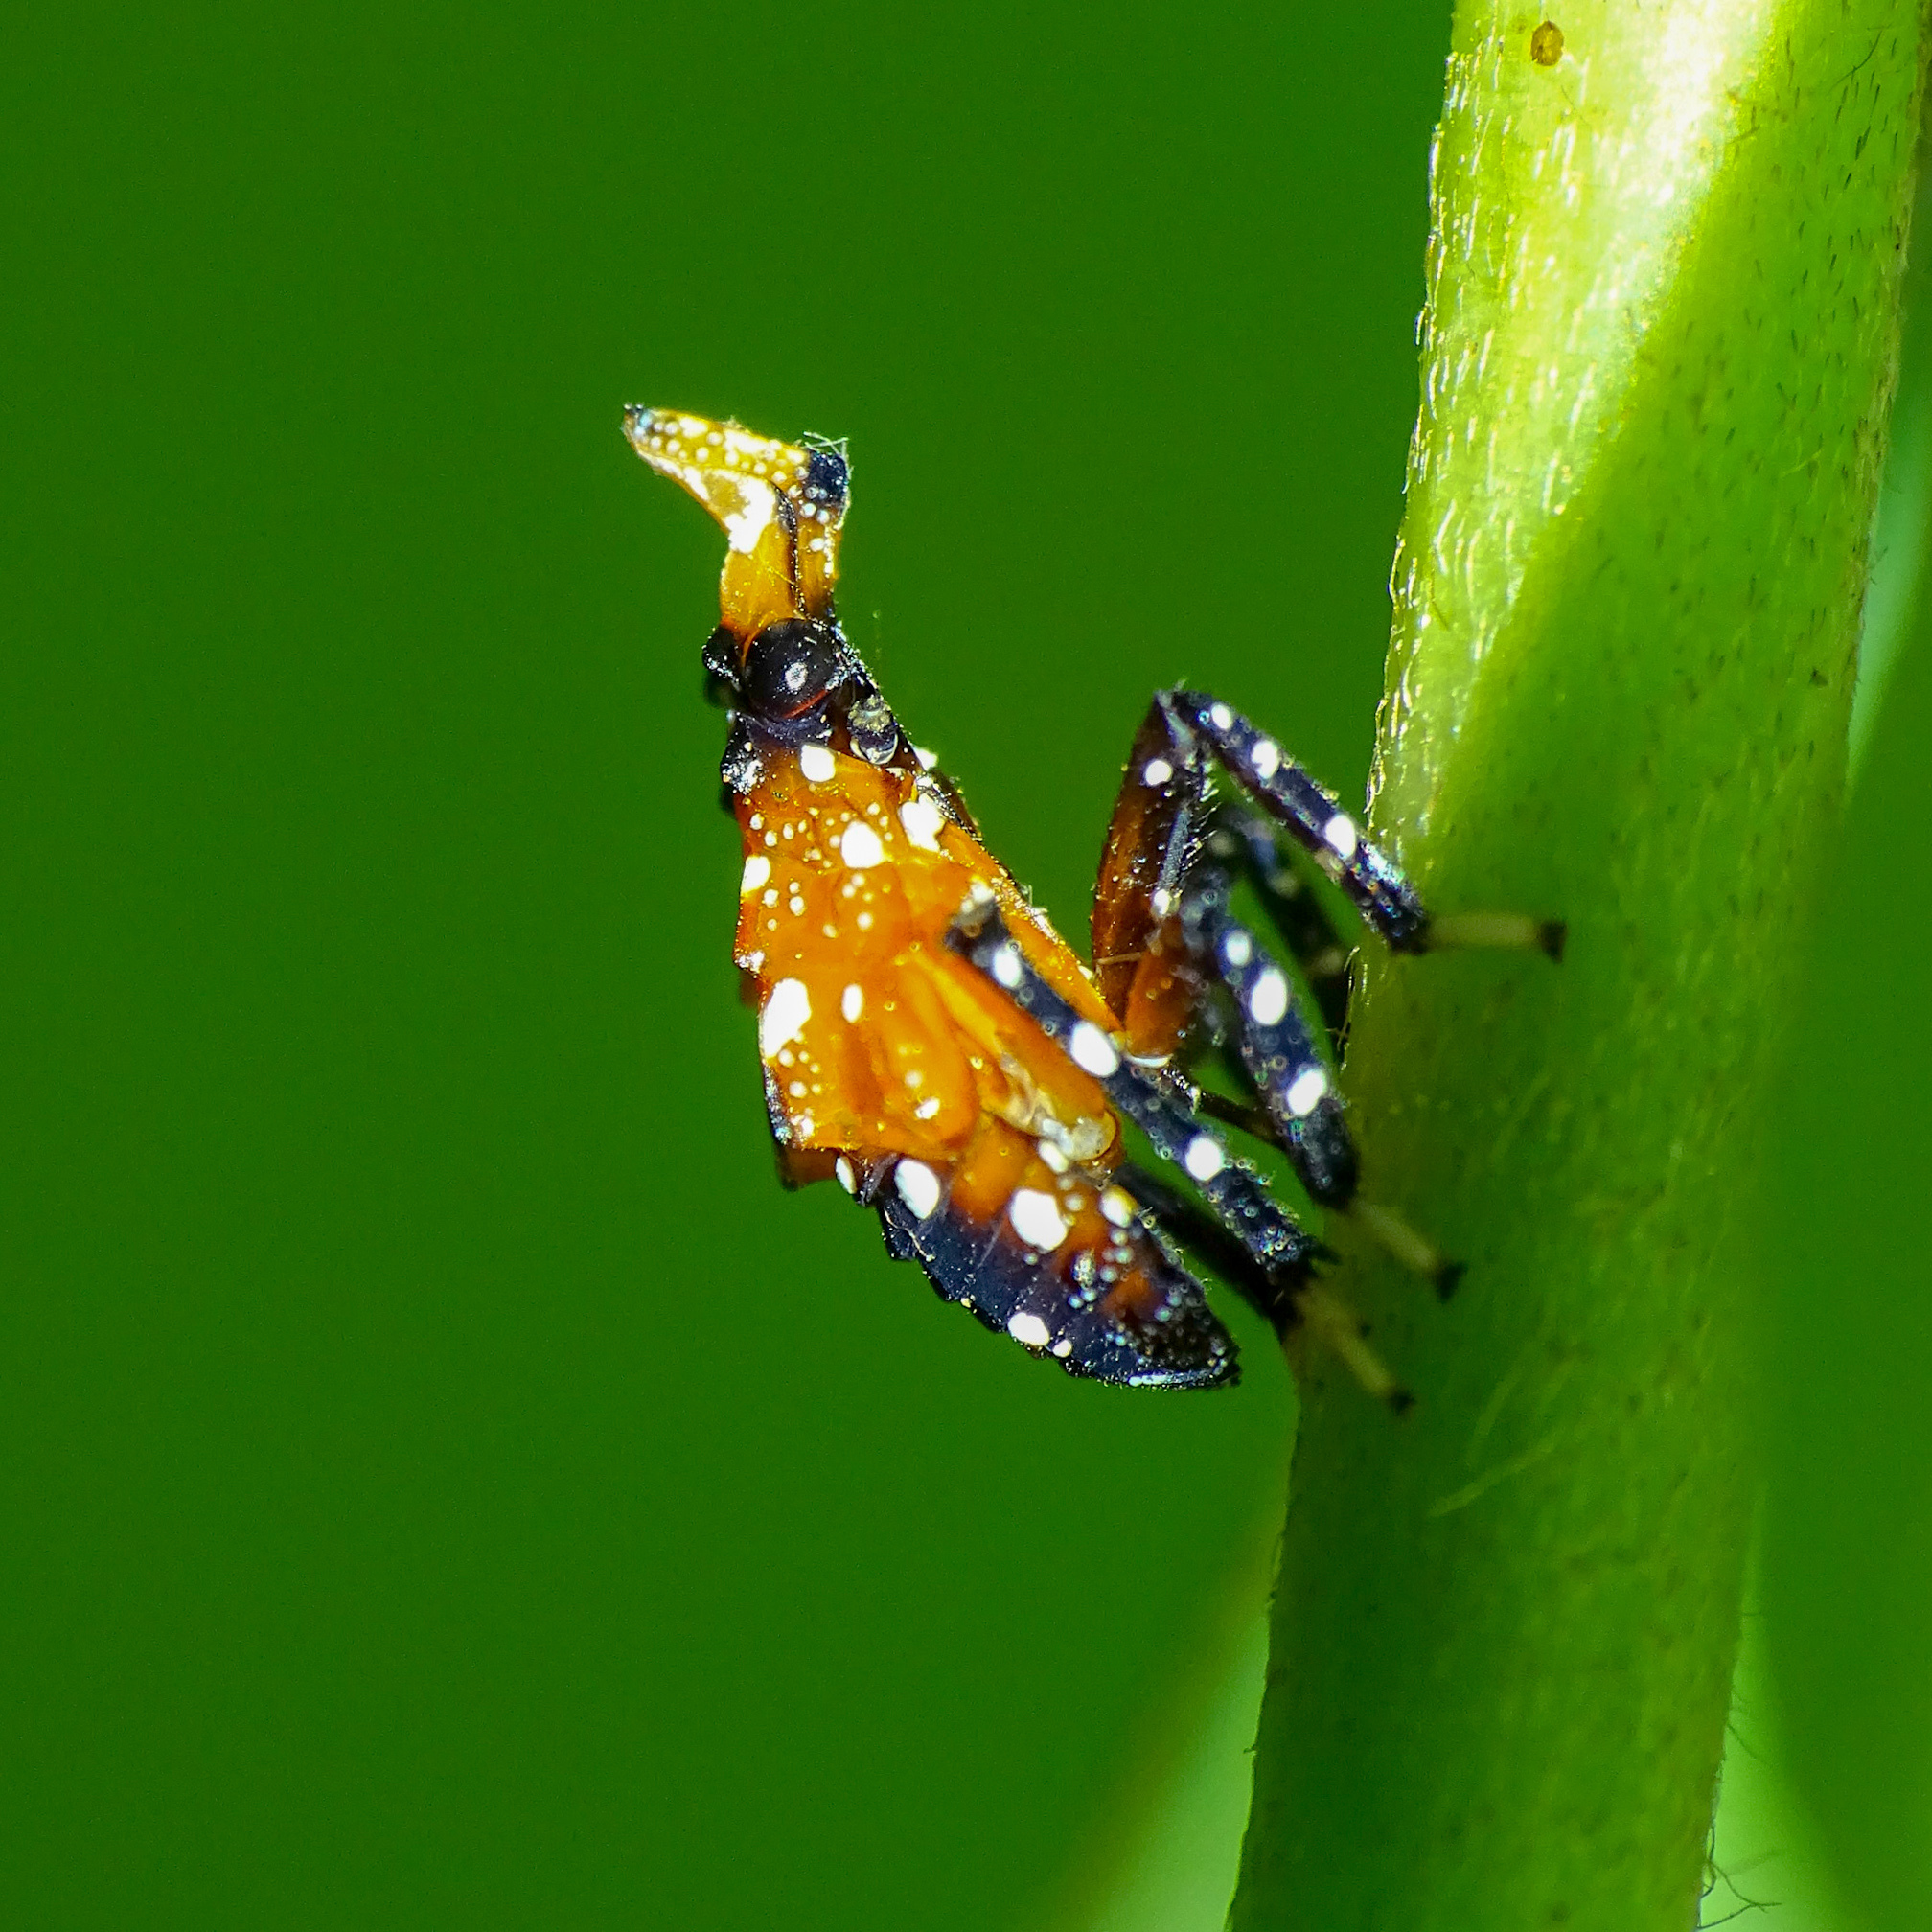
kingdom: Animalia
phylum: Arthropoda
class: Insecta
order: Hemiptera
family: Fulgoridae
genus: Kalidasa
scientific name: Kalidasa lanata
